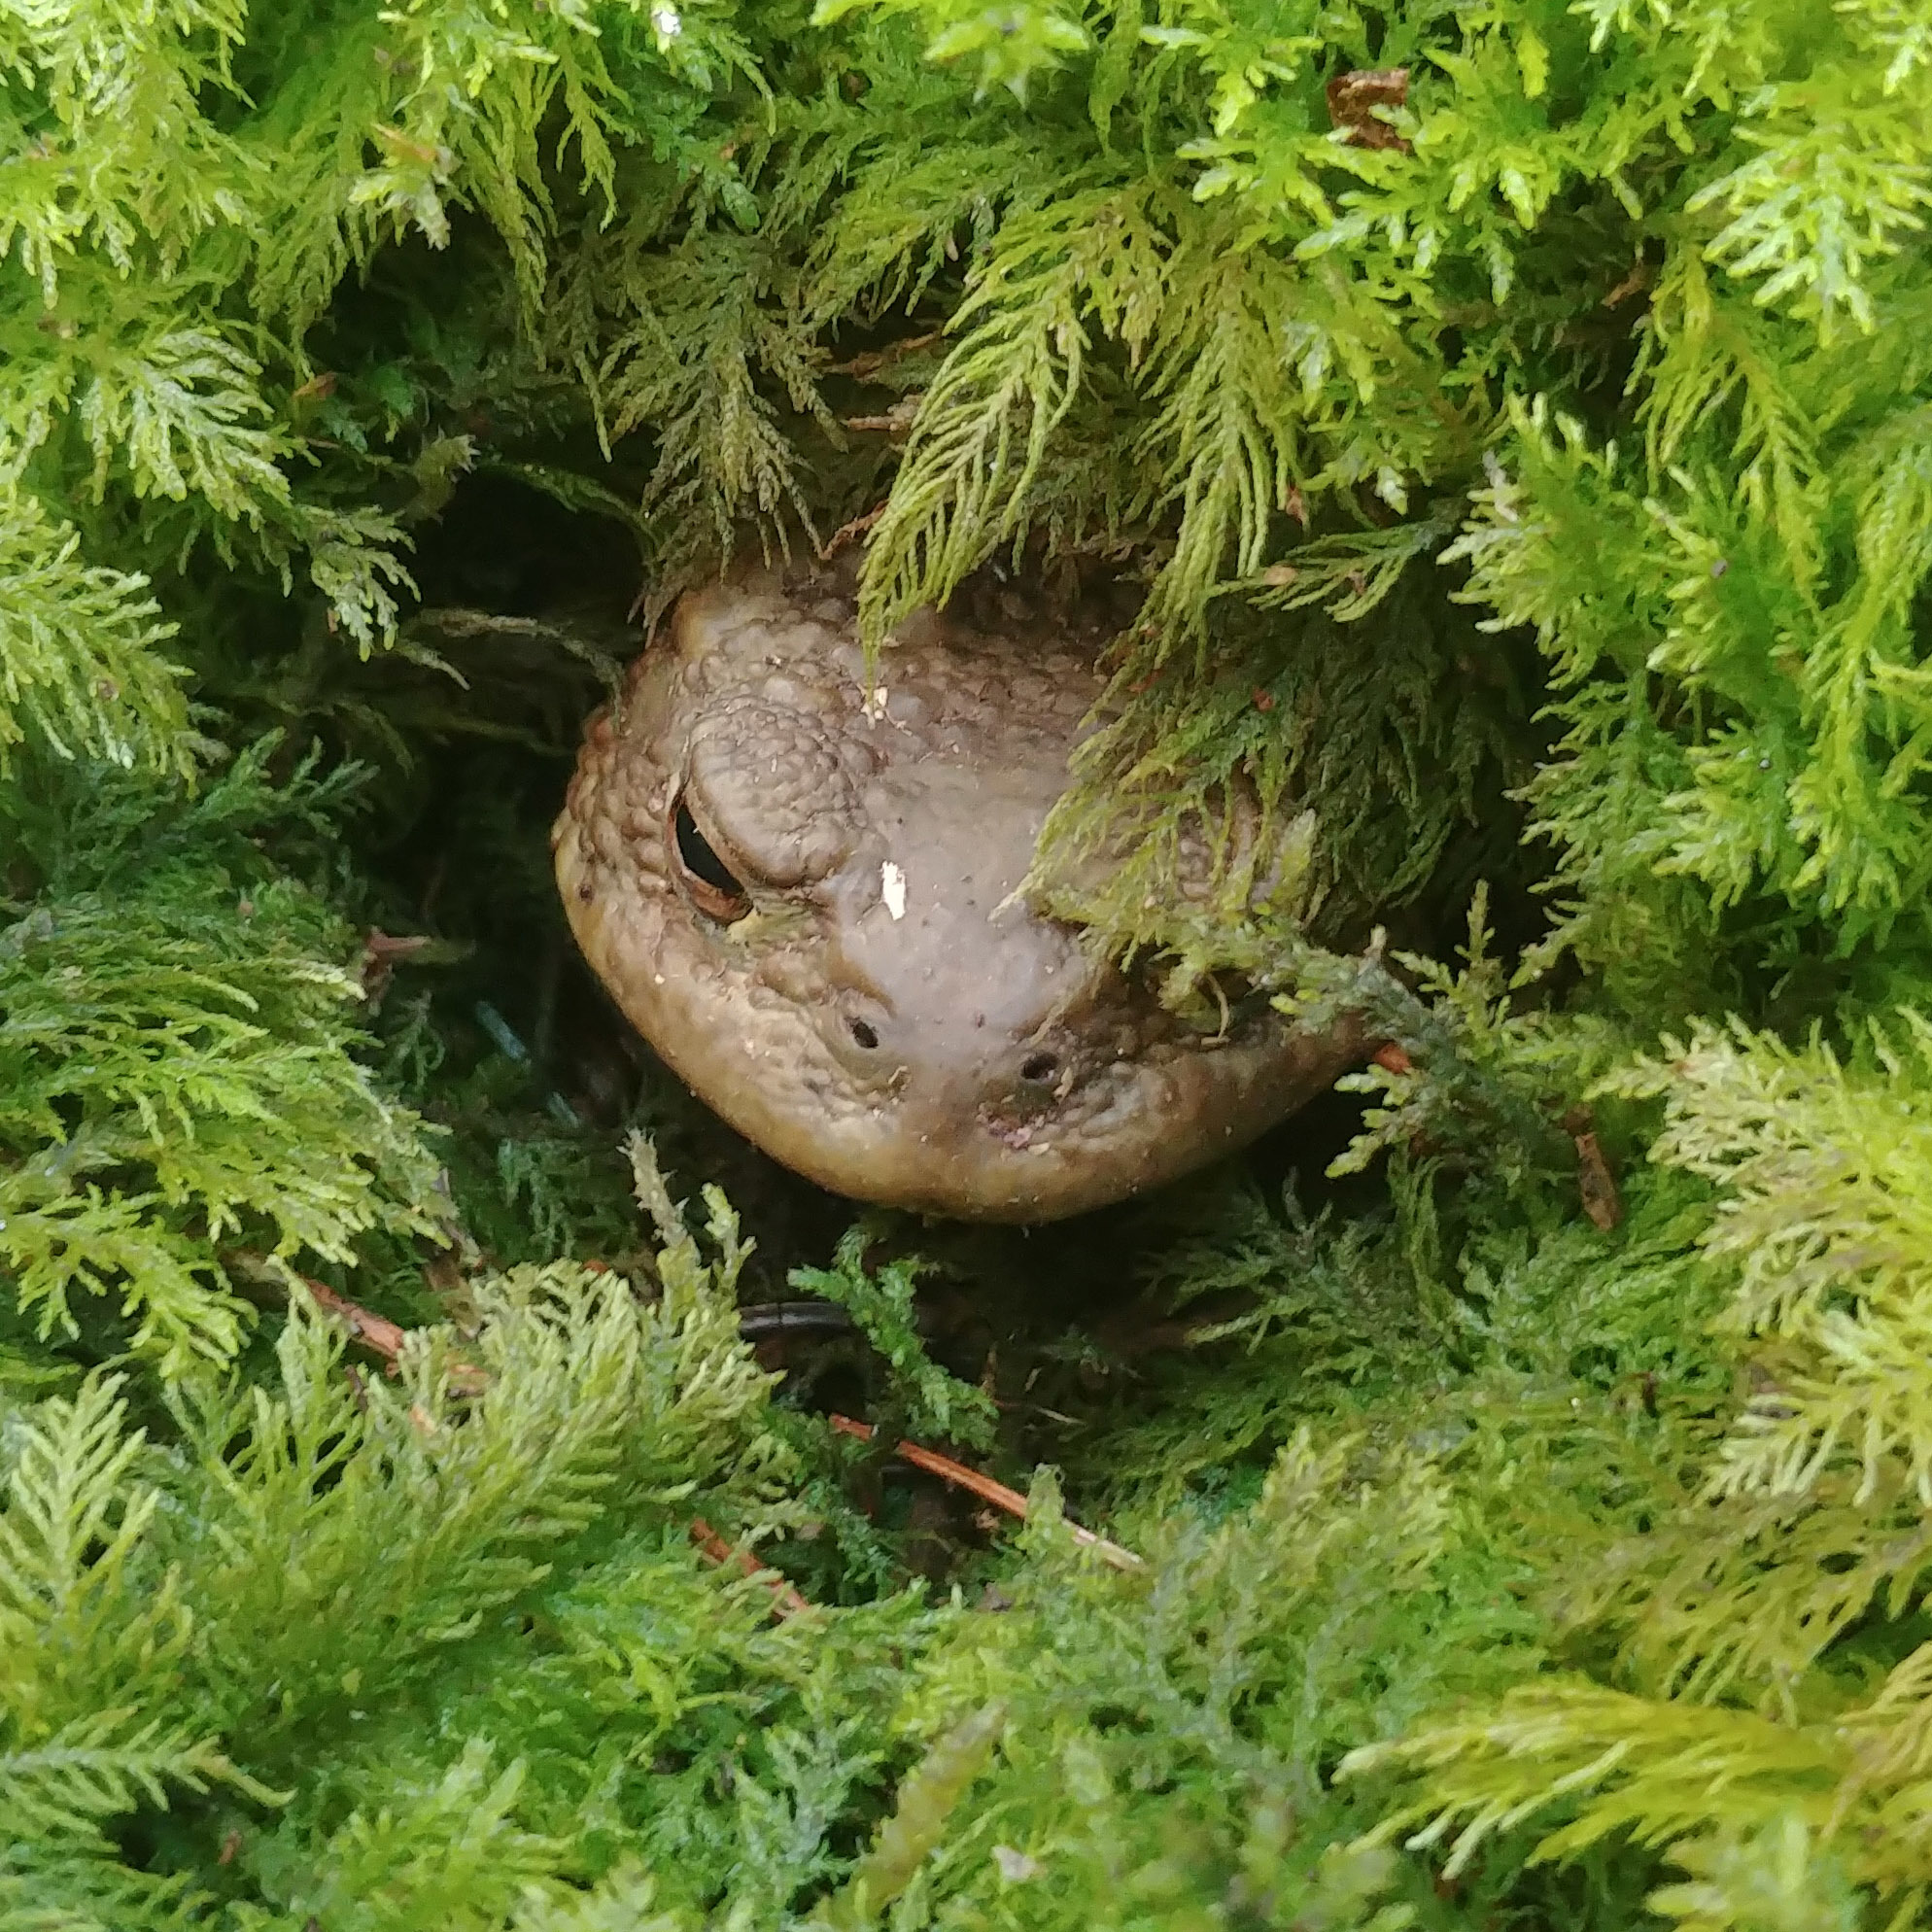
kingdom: Animalia
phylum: Chordata
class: Amphibia
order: Anura
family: Bufonidae
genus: Bufo
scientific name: Bufo bufo
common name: Common toad
